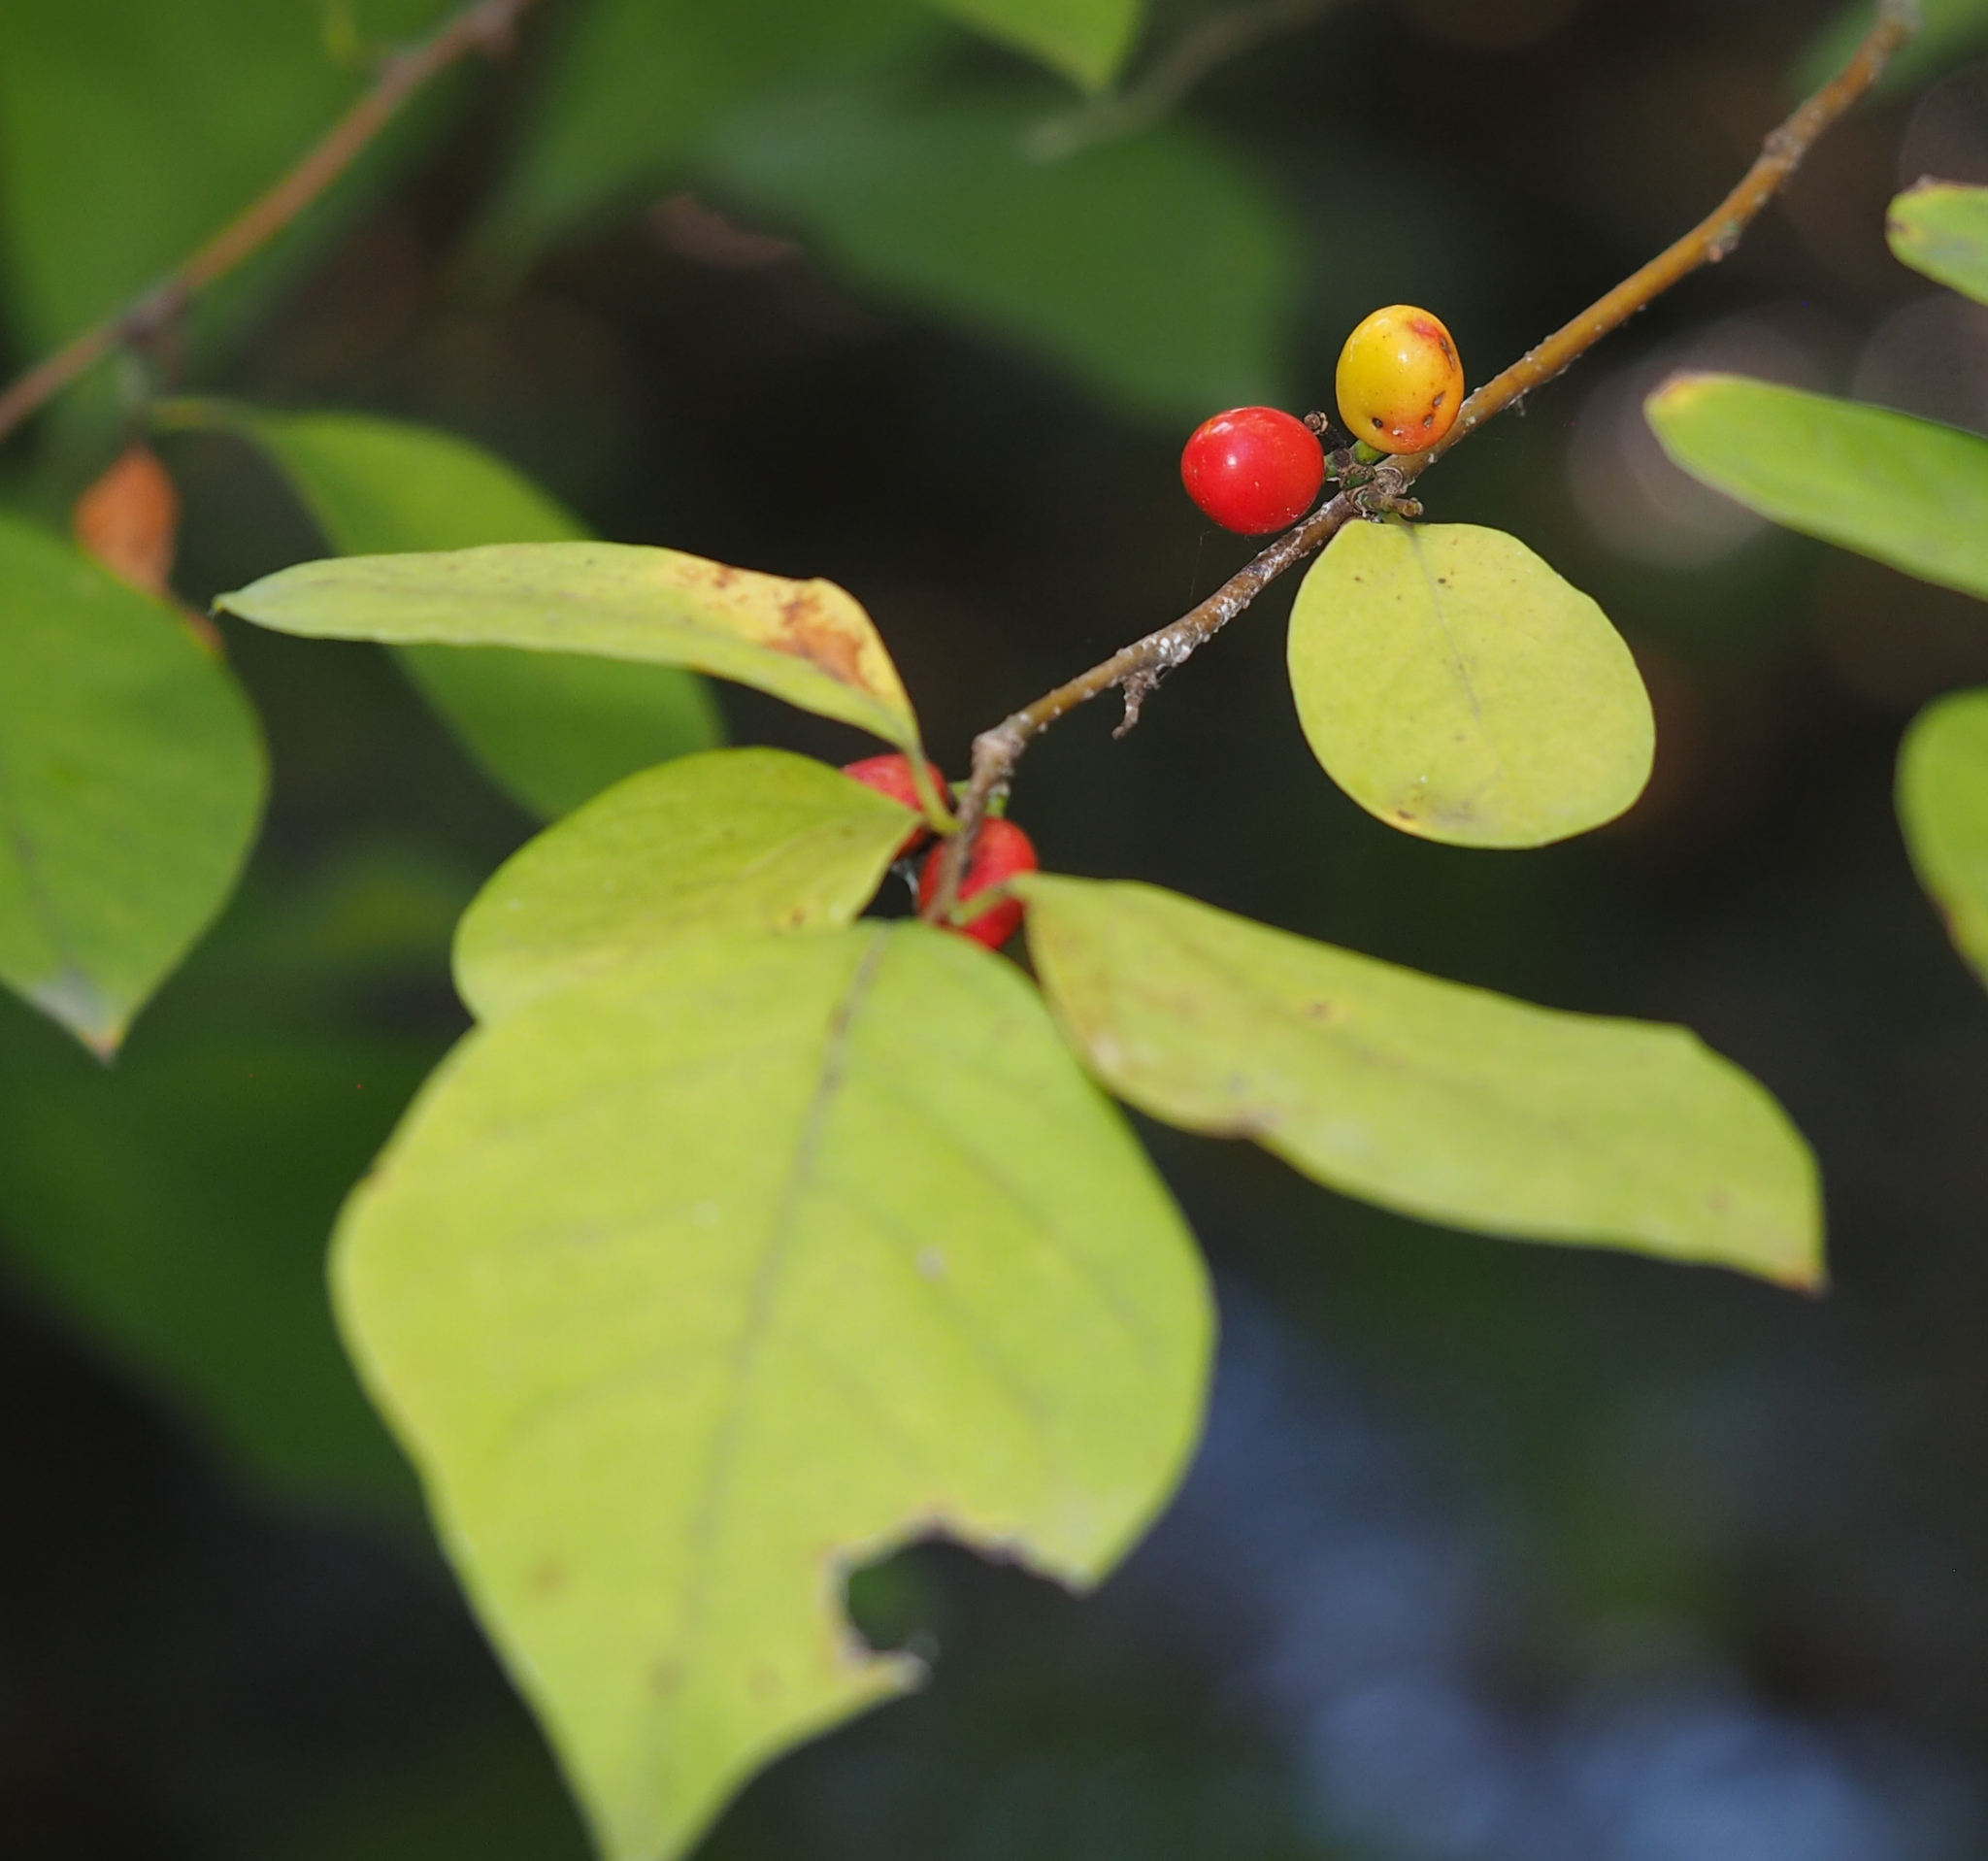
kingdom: Plantae
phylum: Tracheophyta
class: Magnoliopsida
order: Laurales
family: Lauraceae
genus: Lindera
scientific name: Lindera benzoin
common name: Spicebush
